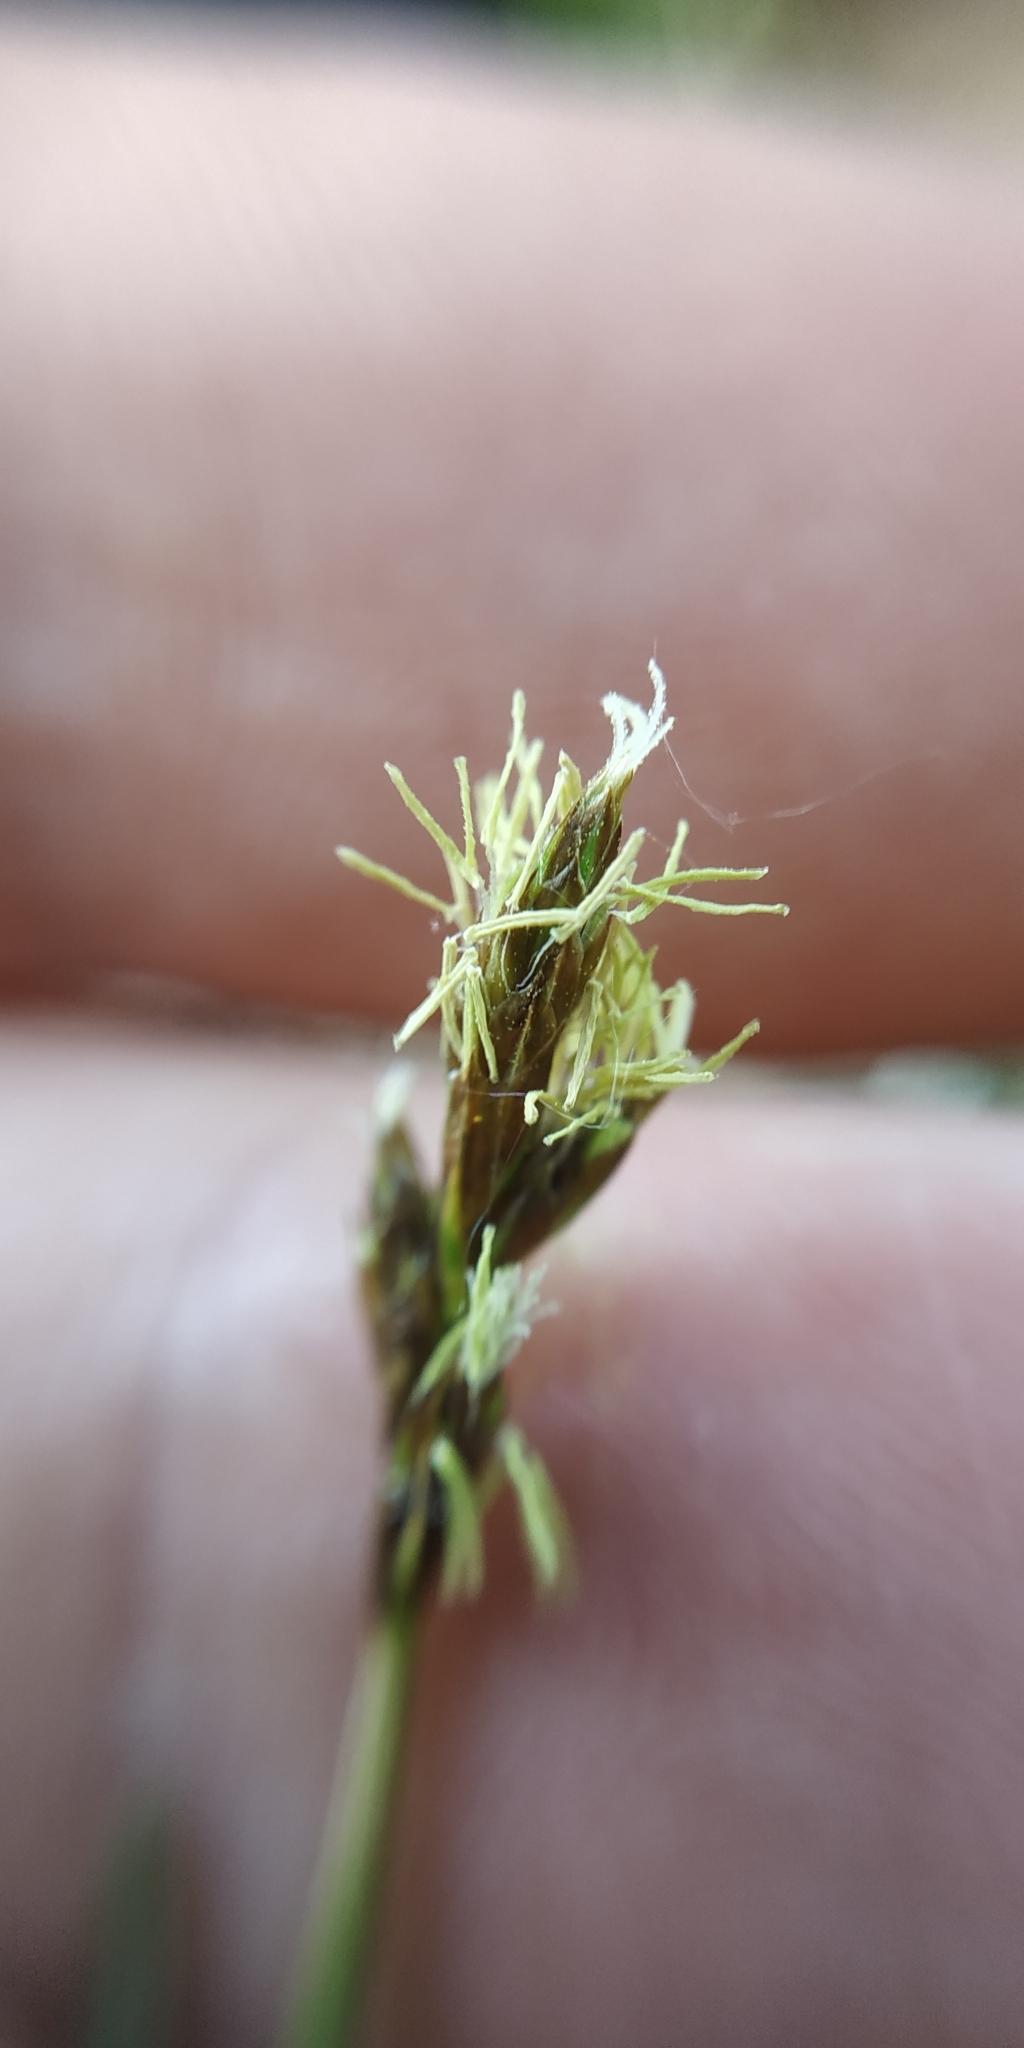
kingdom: Plantae
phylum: Tracheophyta
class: Liliopsida
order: Poales
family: Cyperaceae
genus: Carex
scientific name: Carex praecox
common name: Early sedge
